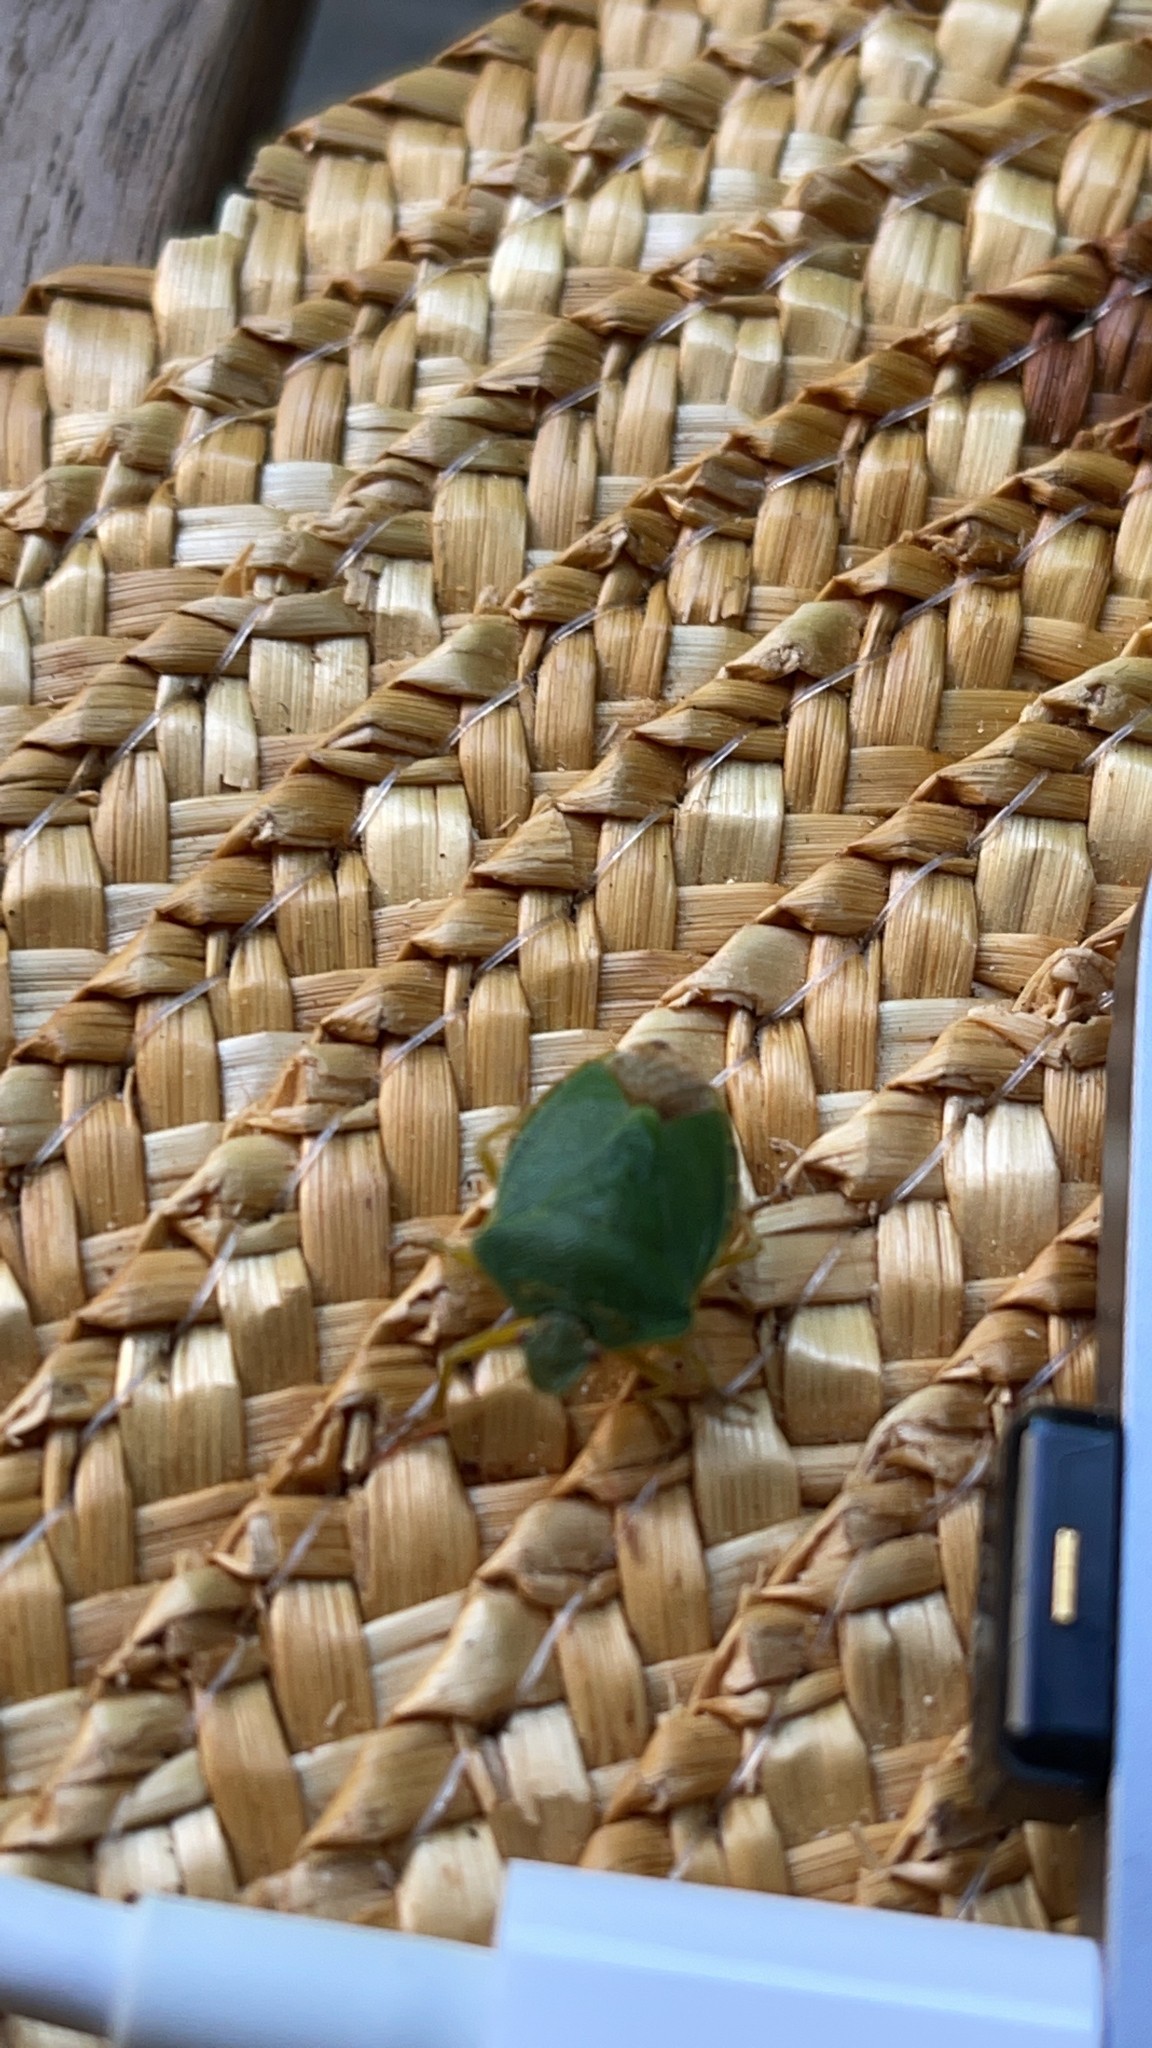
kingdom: Animalia
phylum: Arthropoda
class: Insecta
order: Hemiptera
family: Pentatomidae
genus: Palomena
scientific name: Palomena prasina
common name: Green shieldbug
